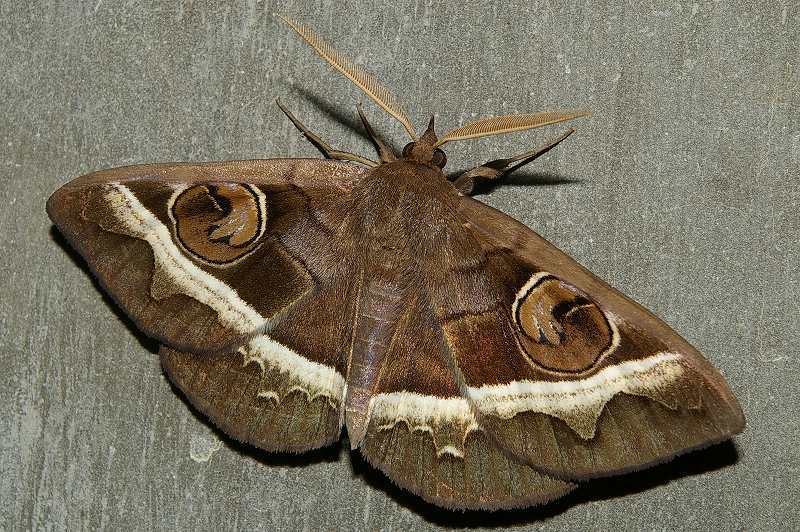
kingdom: Animalia
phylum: Arthropoda
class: Insecta
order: Lepidoptera
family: Erebidae
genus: Metopta
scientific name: Metopta rectifasciata
